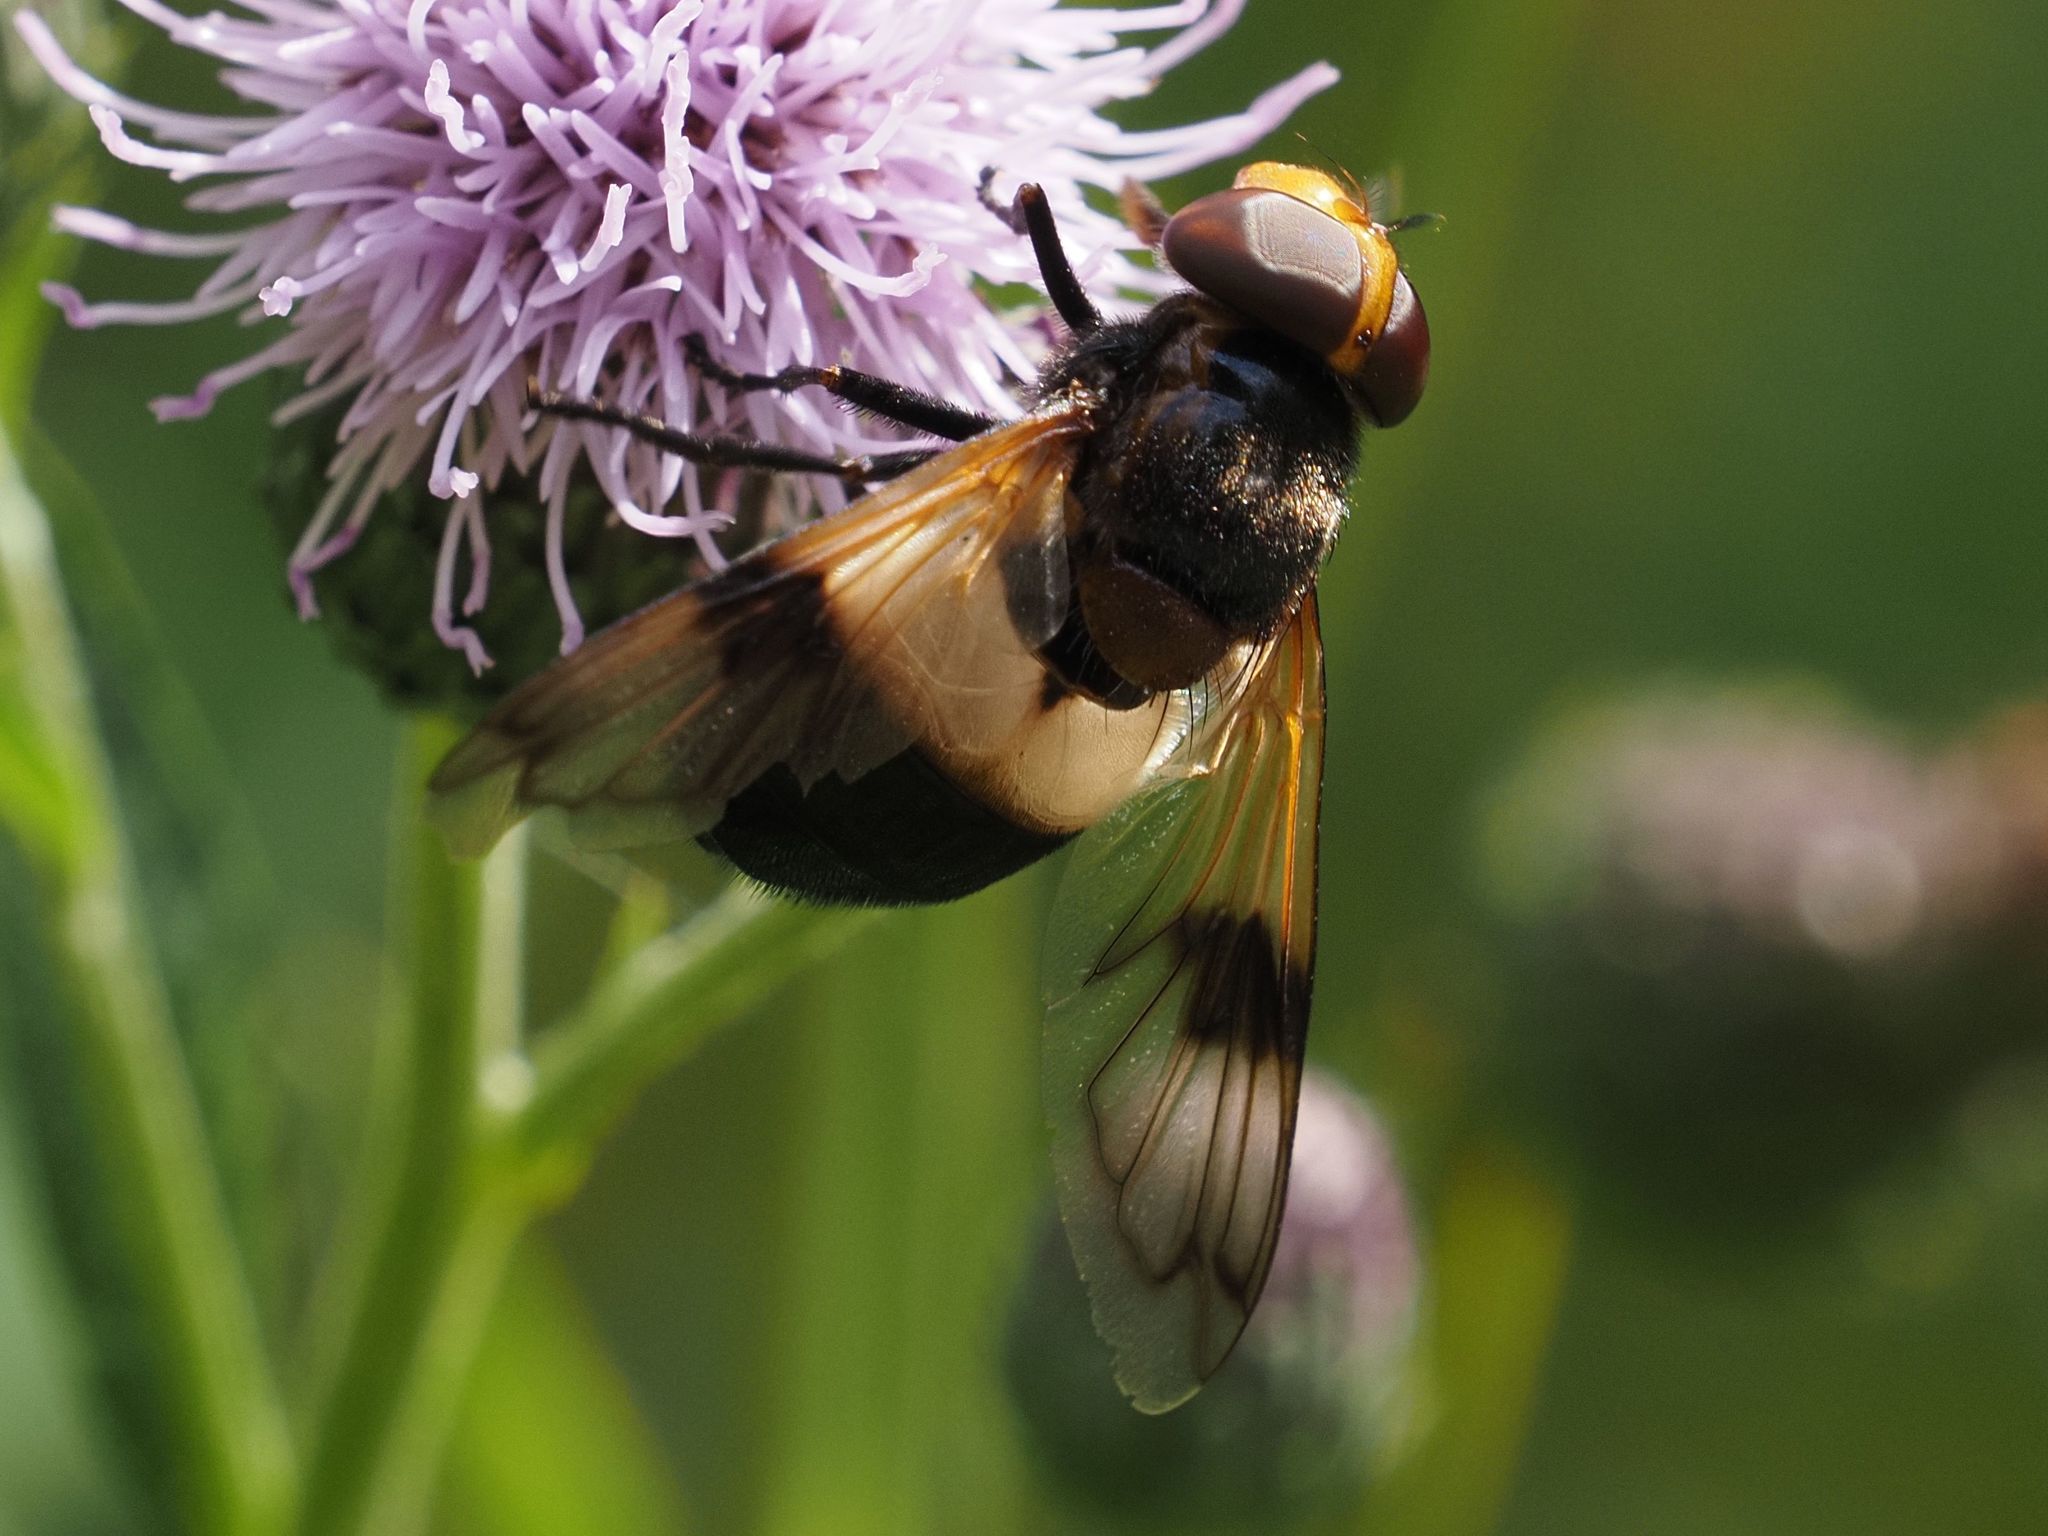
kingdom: Animalia
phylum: Arthropoda
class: Insecta
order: Diptera
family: Syrphidae
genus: Volucella
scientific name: Volucella pellucens
